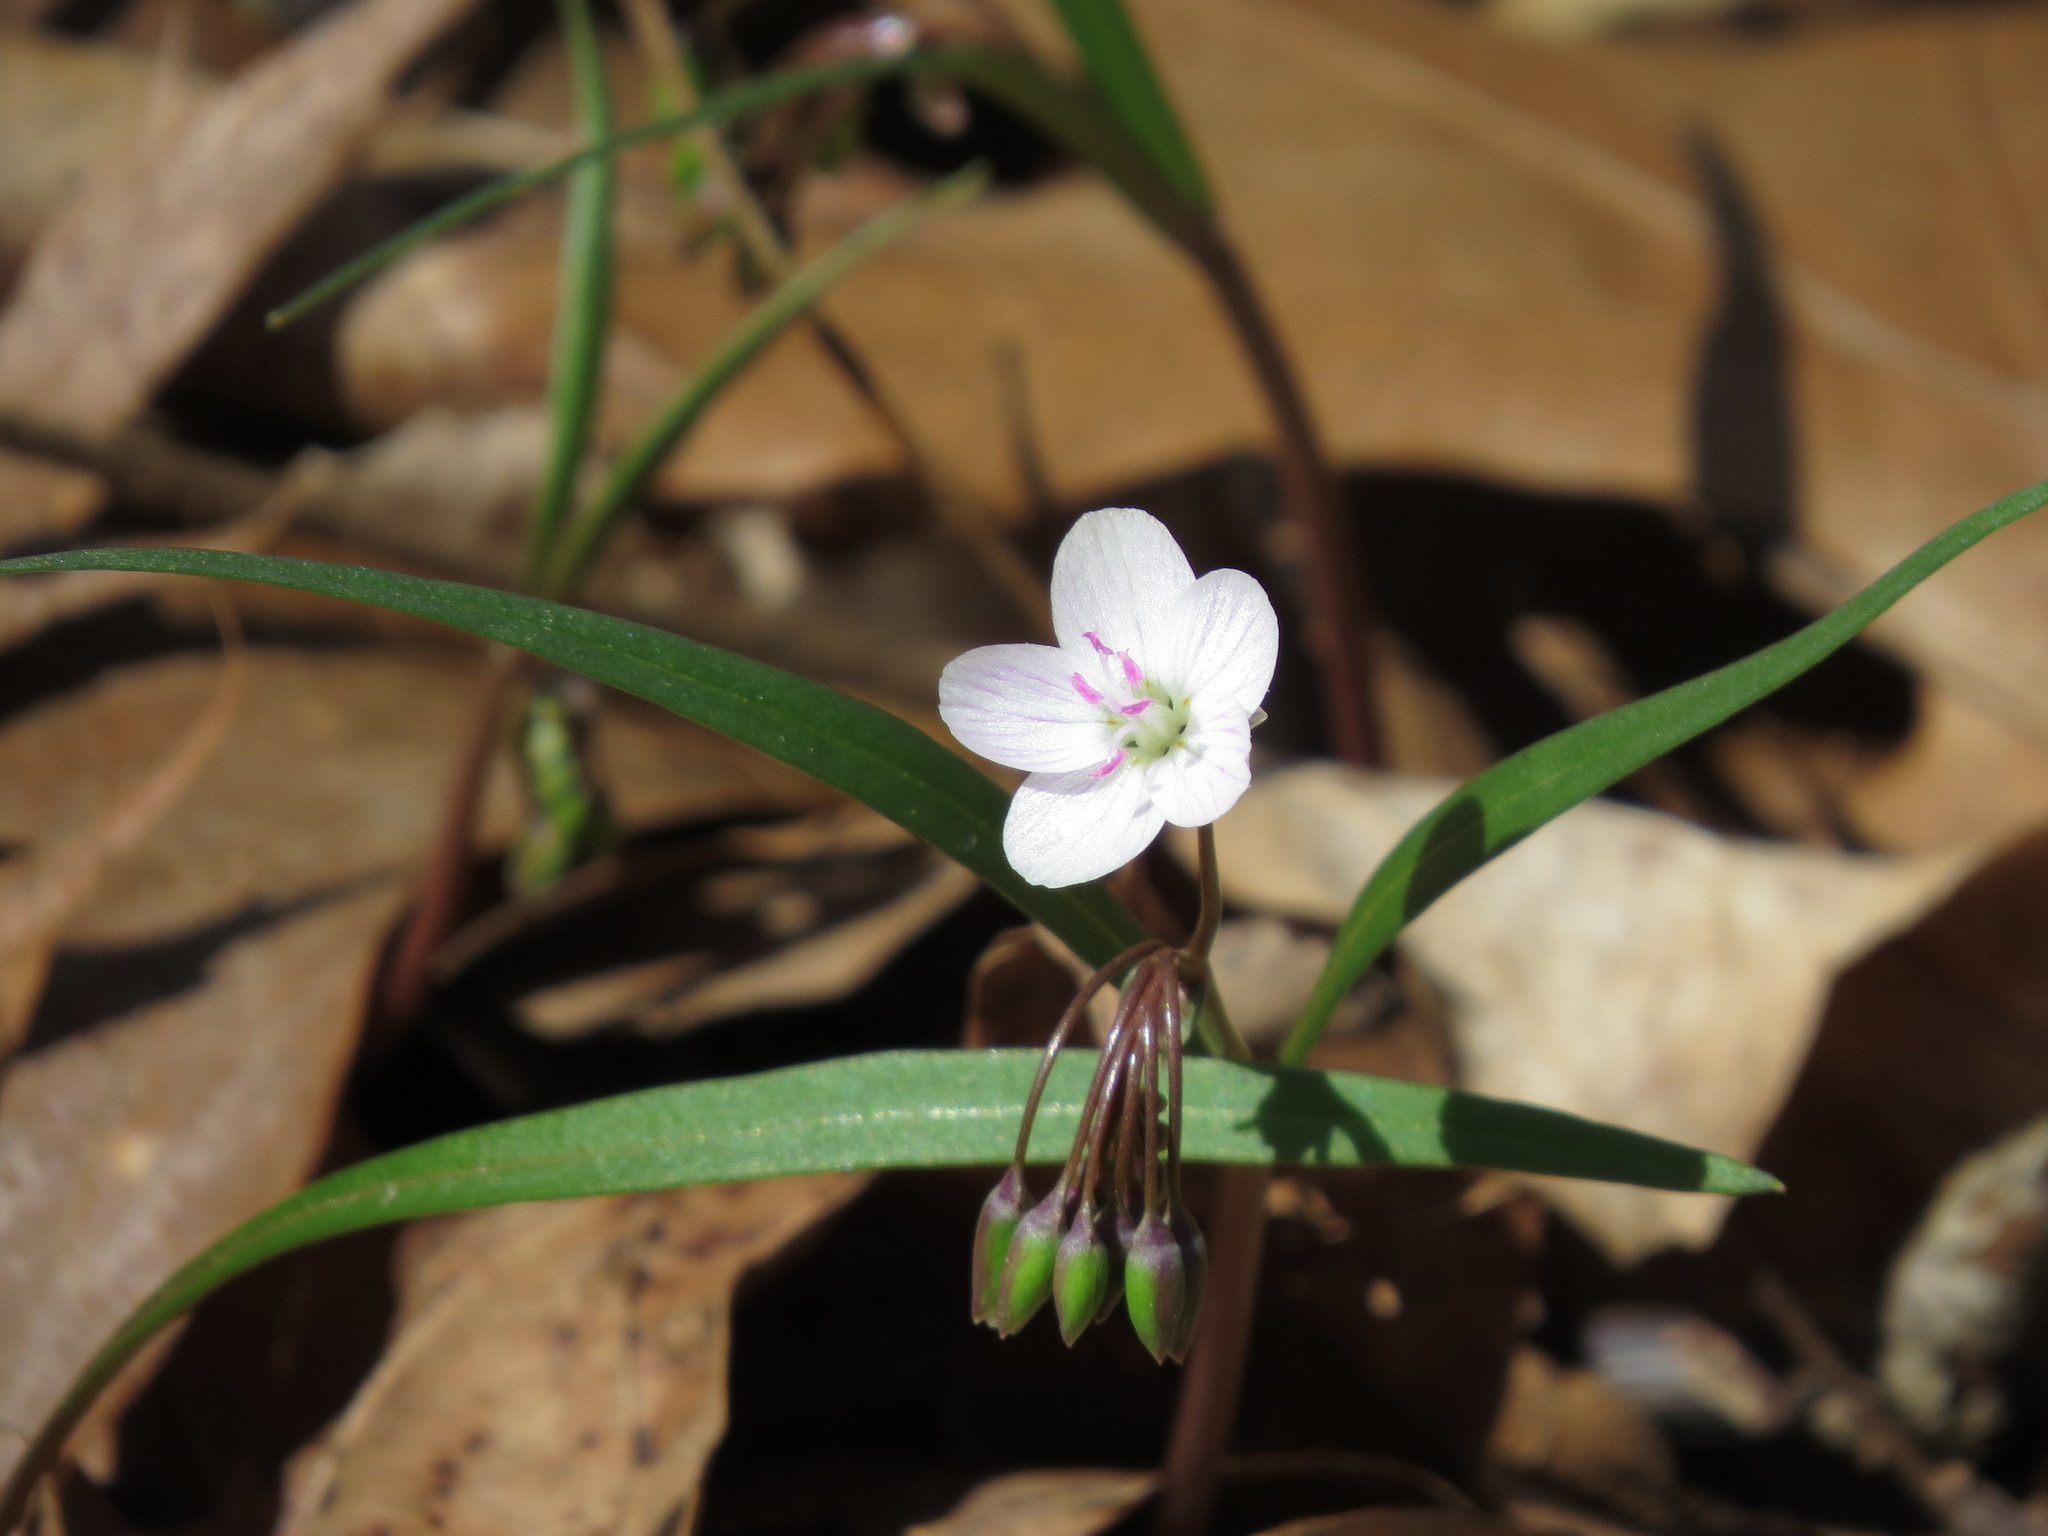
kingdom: Plantae
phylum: Tracheophyta
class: Magnoliopsida
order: Caryophyllales
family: Montiaceae
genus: Claytonia
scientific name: Claytonia virginica
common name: Virginia springbeauty
